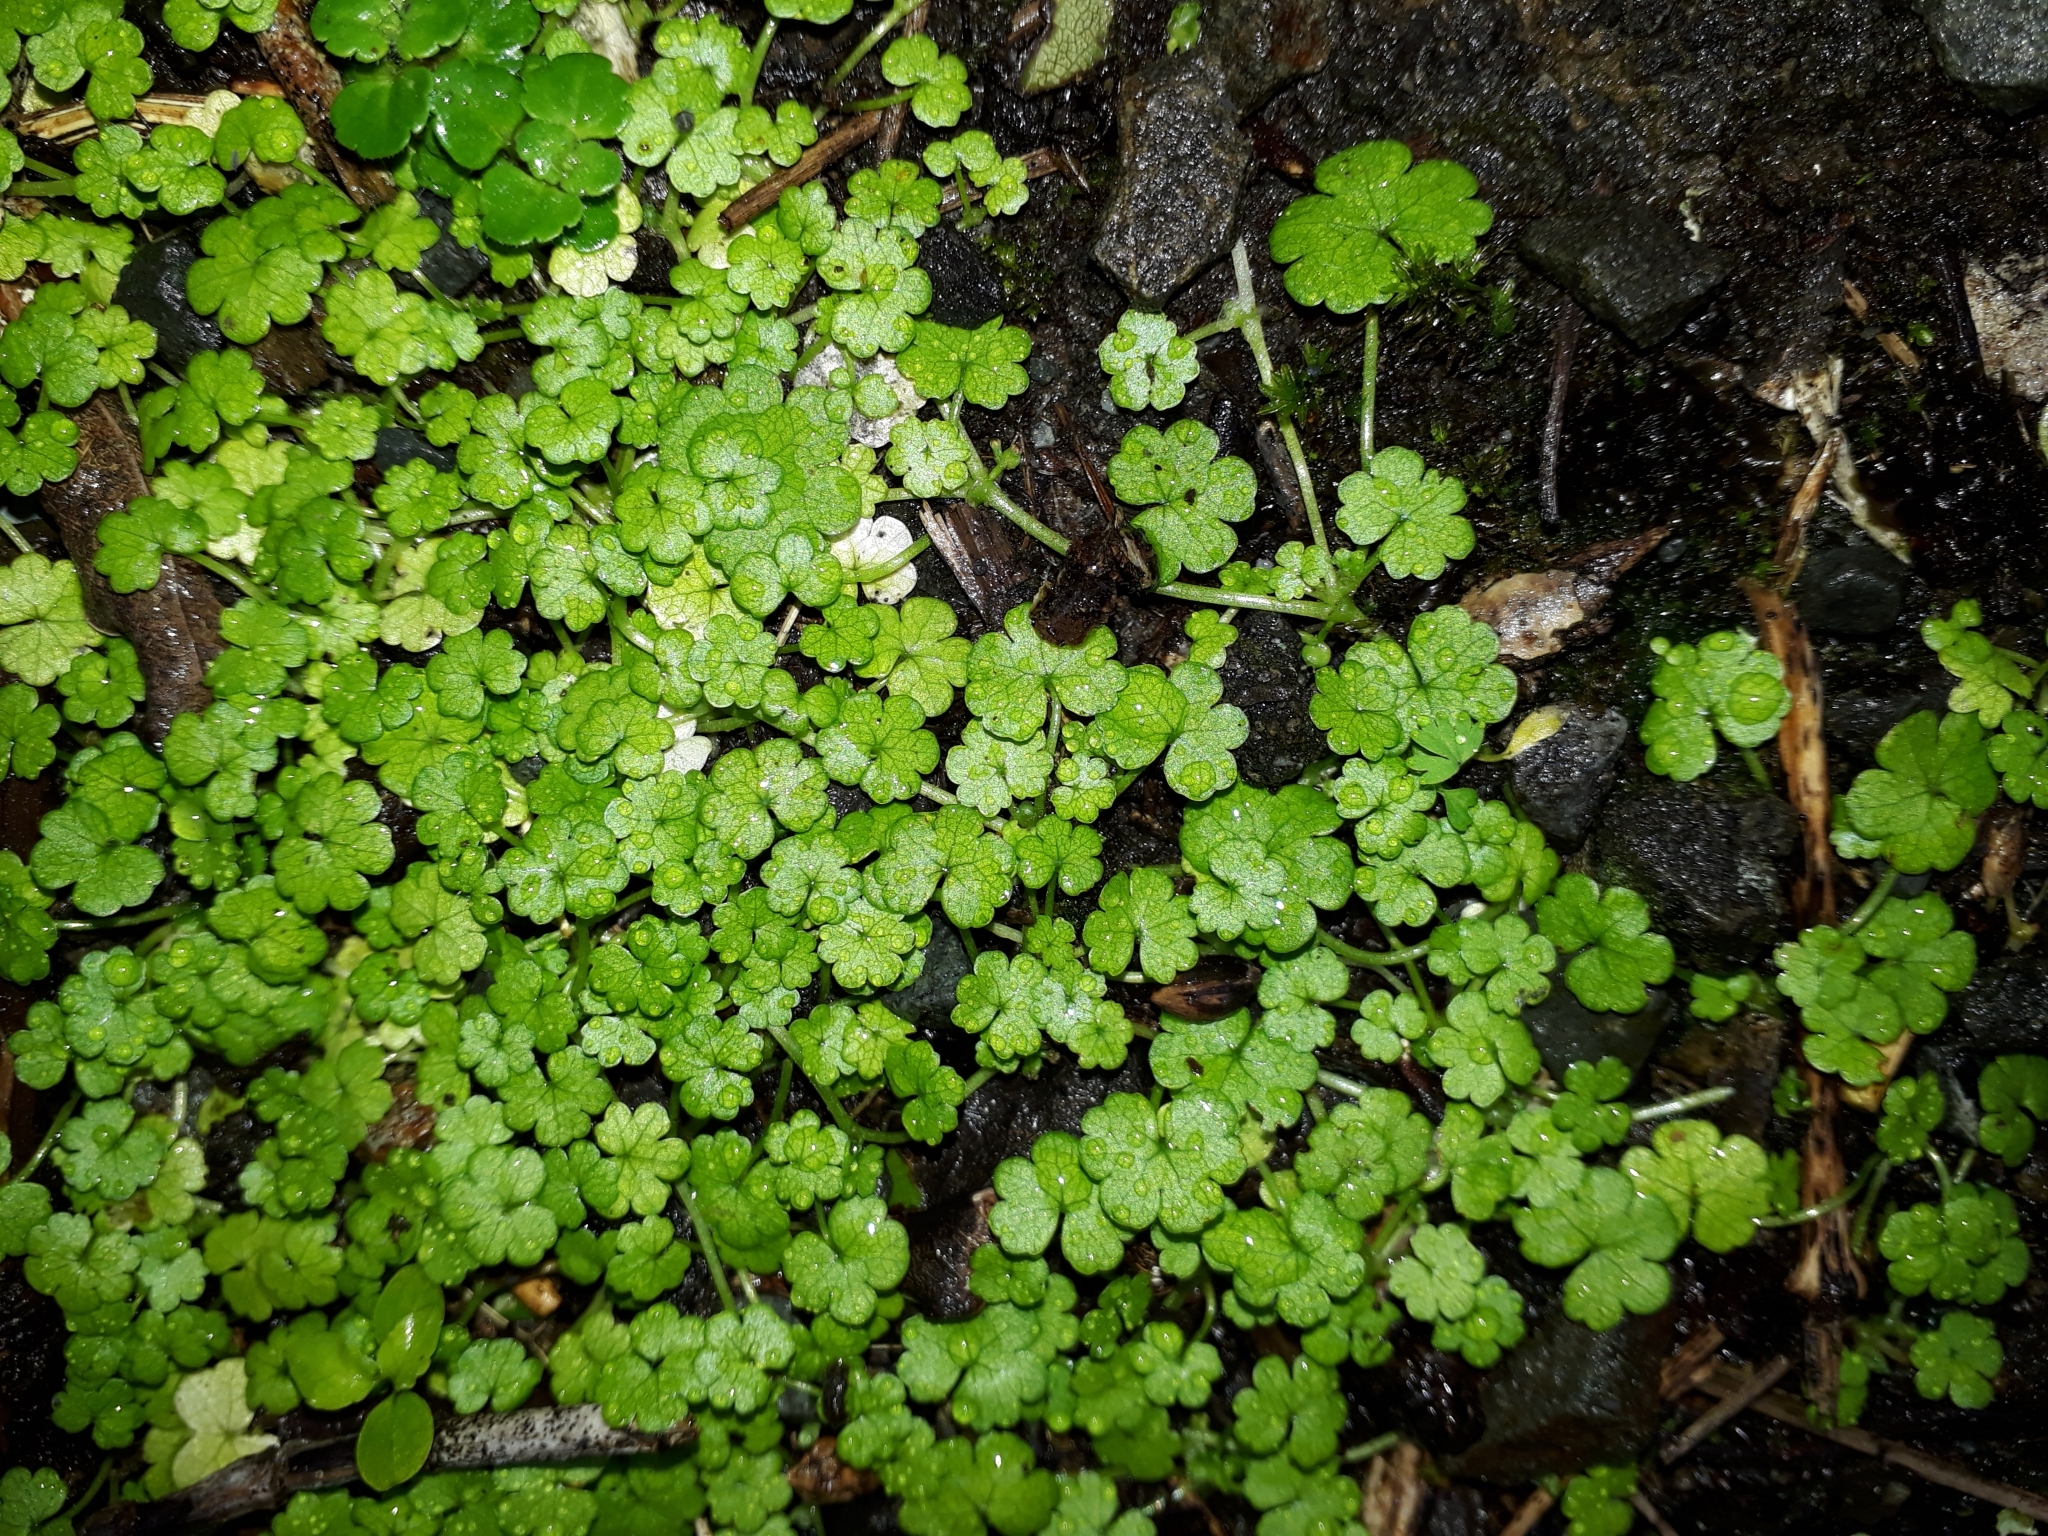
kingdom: Plantae
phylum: Tracheophyta
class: Magnoliopsida
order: Apiales
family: Araliaceae
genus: Hydrocotyle
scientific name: Hydrocotyle heteromeria
